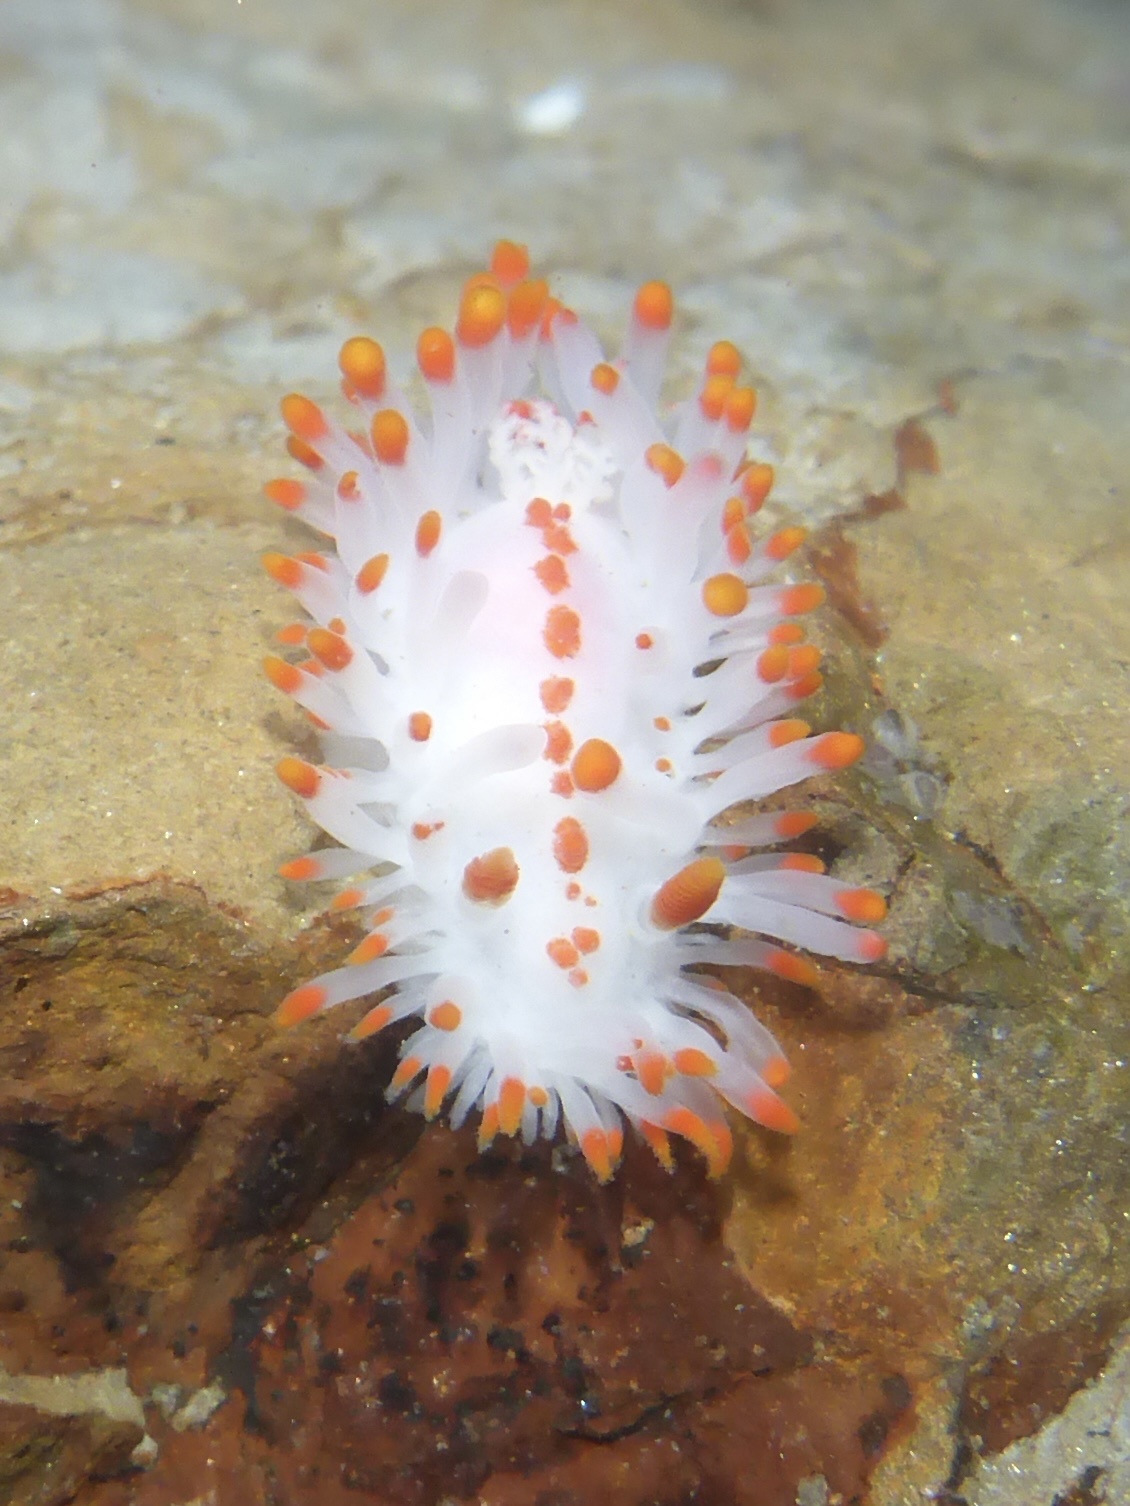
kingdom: Animalia
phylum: Mollusca
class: Gastropoda
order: Nudibranchia
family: Polyceridae
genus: Limacia
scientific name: Limacia mcdonaldi
